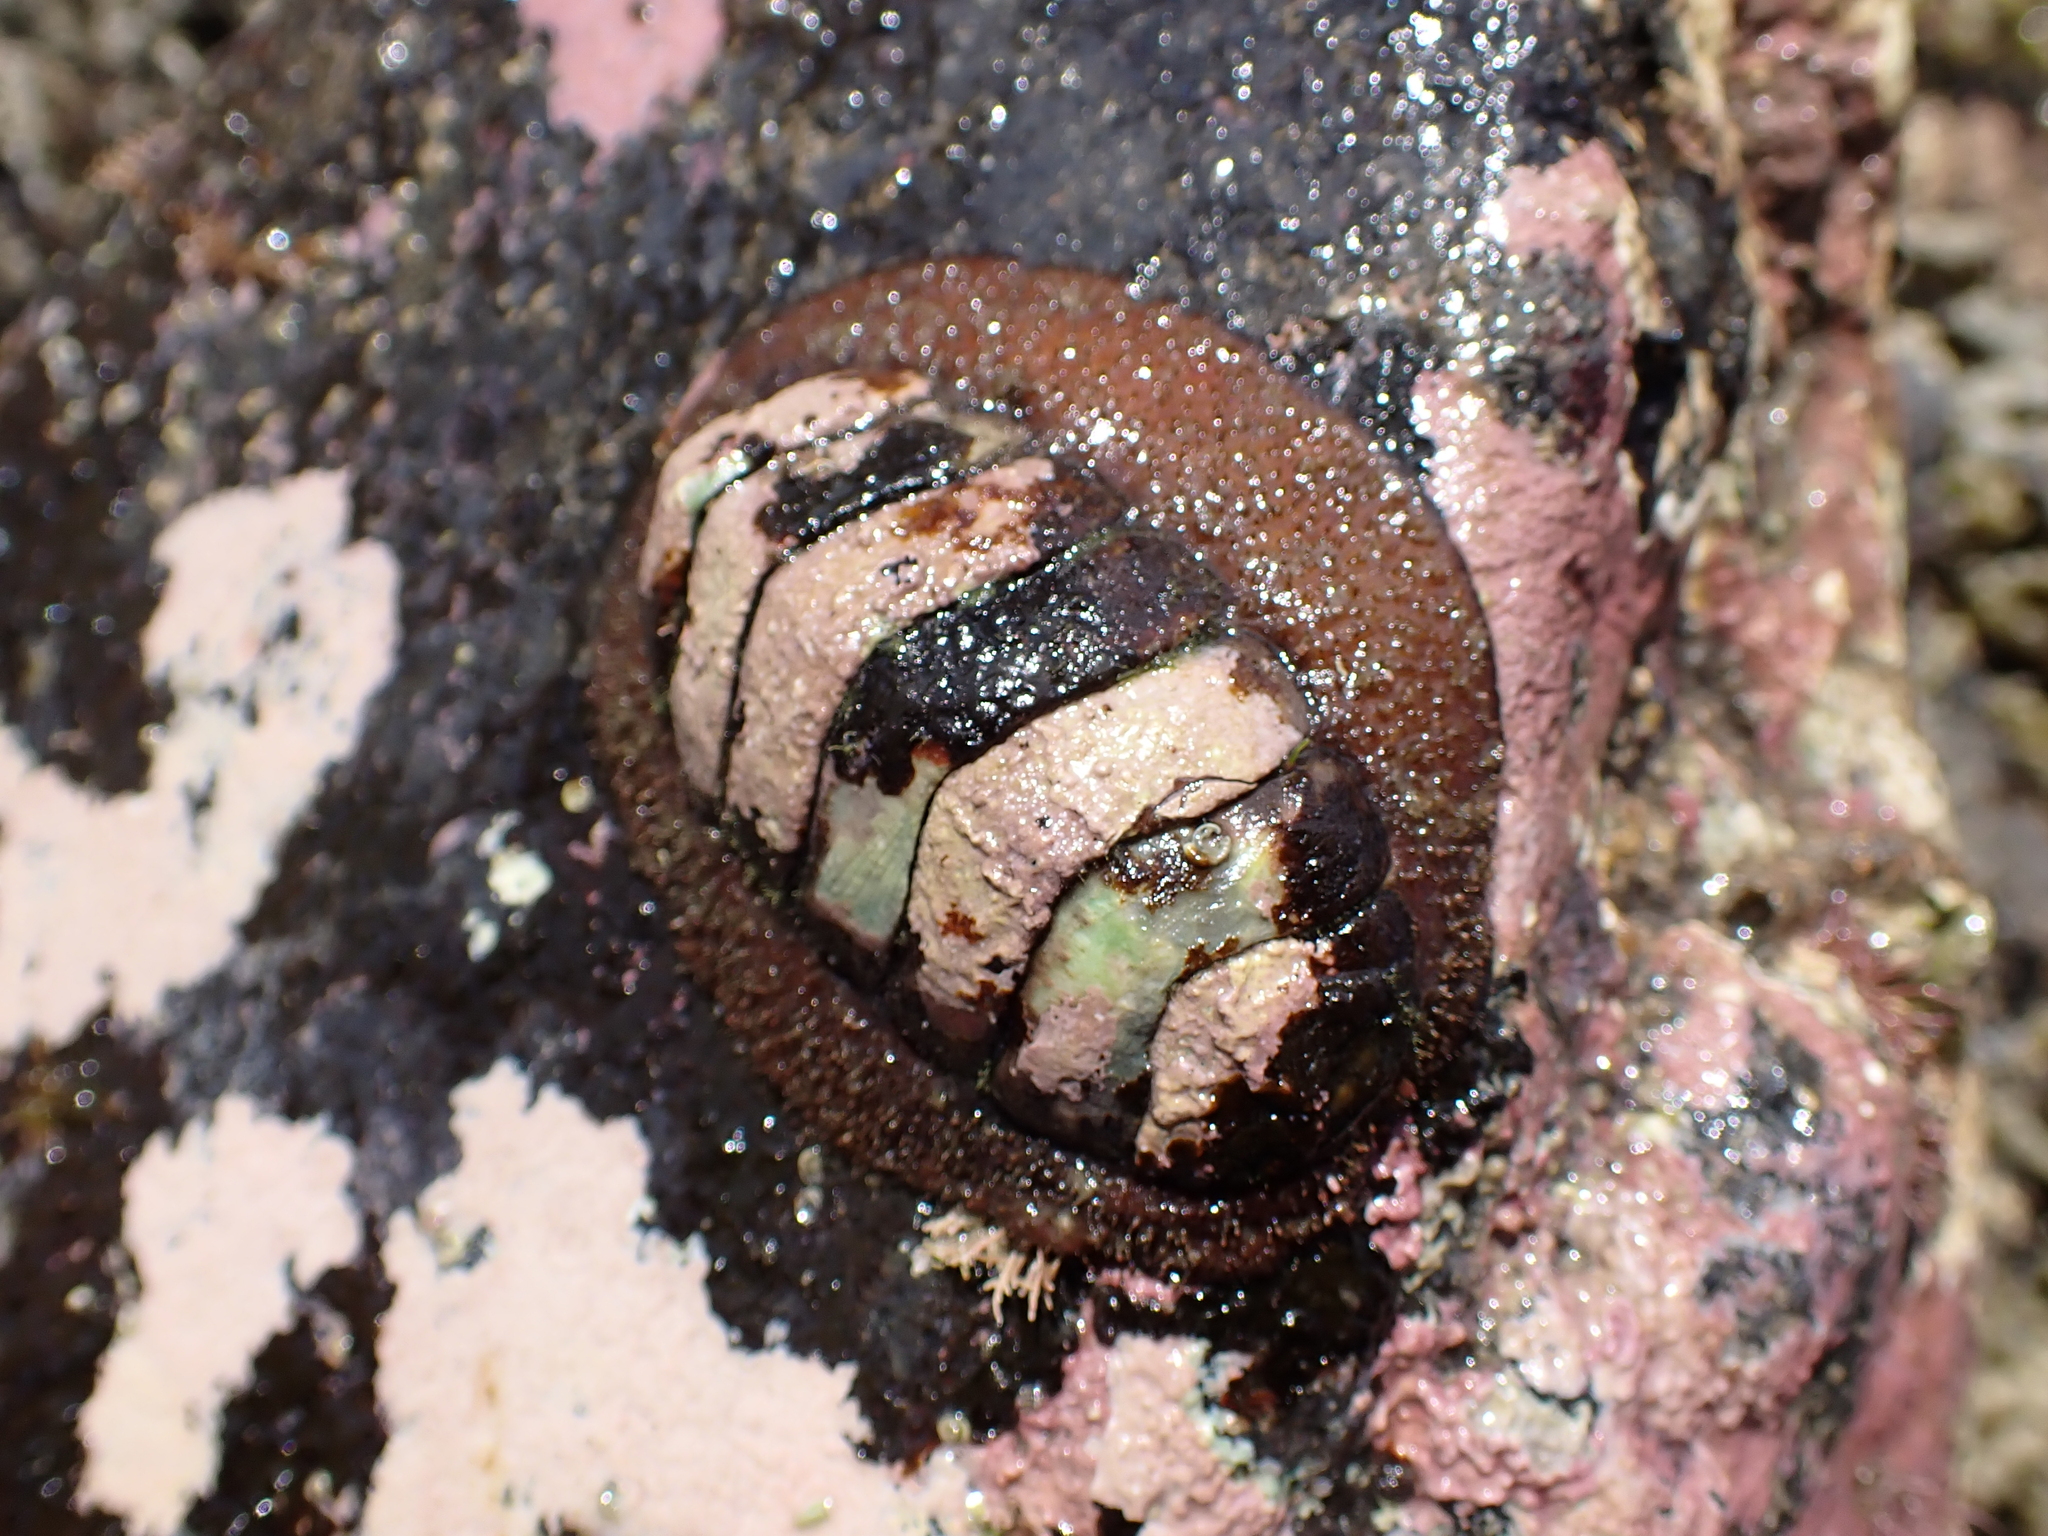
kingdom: Animalia
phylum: Mollusca
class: Polyplacophora
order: Callochitonida
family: Callochitonidae
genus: Eudoxochiton
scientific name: Eudoxochiton nobilis
